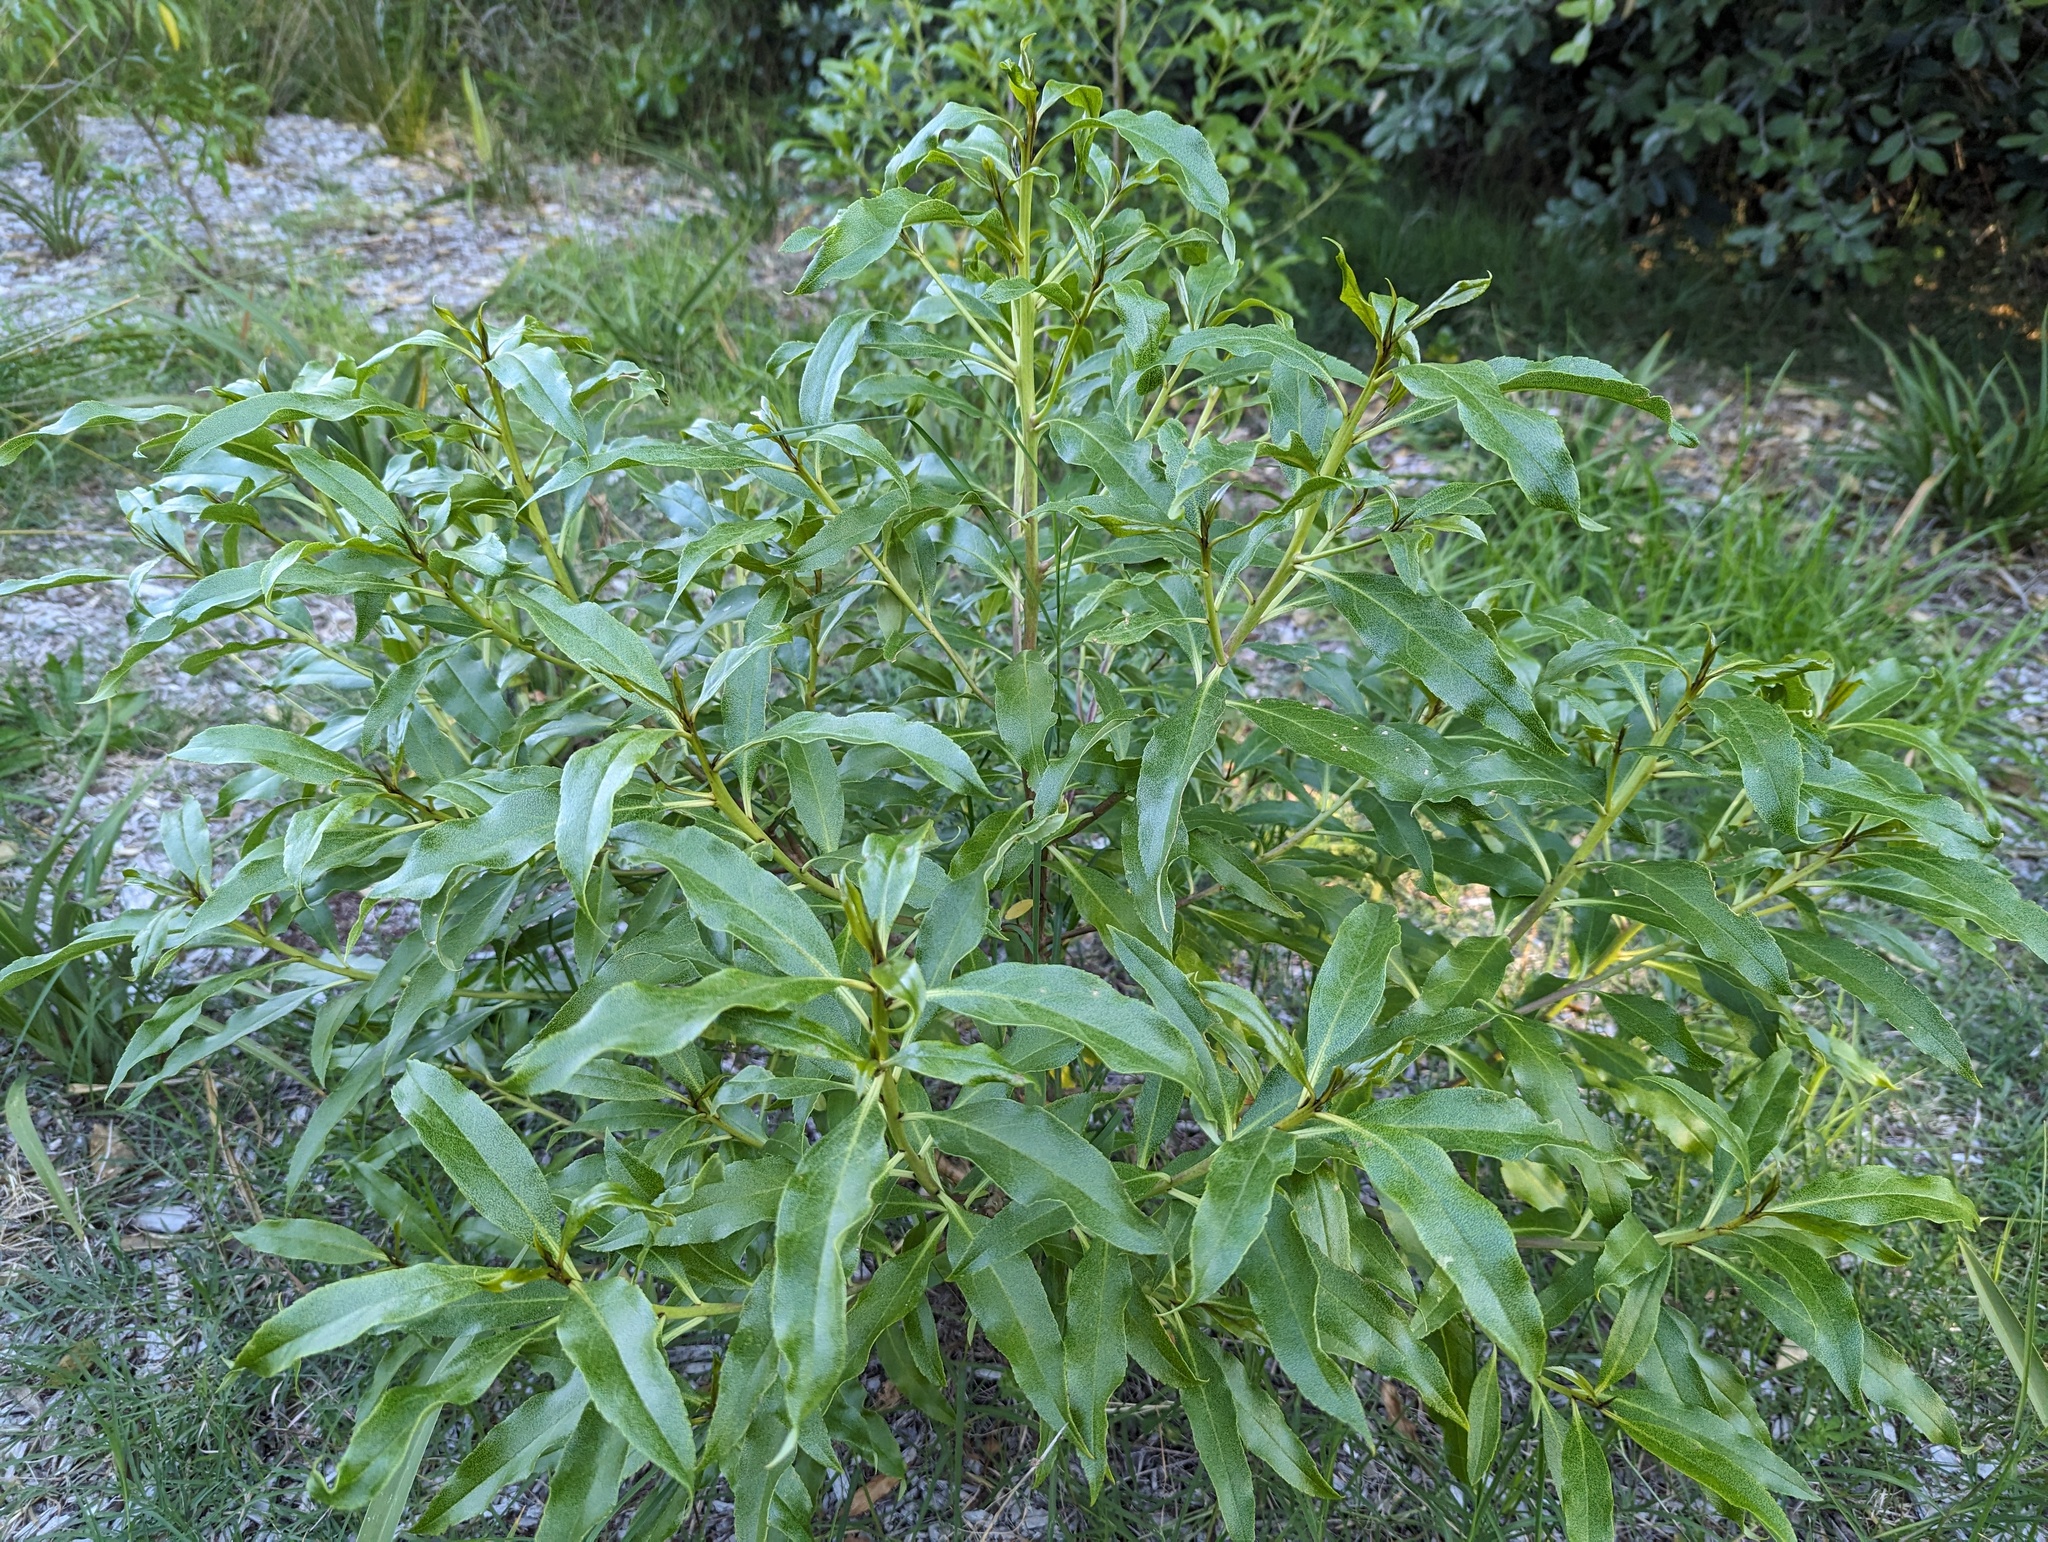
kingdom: Plantae
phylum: Tracheophyta
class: Magnoliopsida
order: Lamiales
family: Scrophulariaceae
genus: Myoporum
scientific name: Myoporum laetum
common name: Ngaio tree
